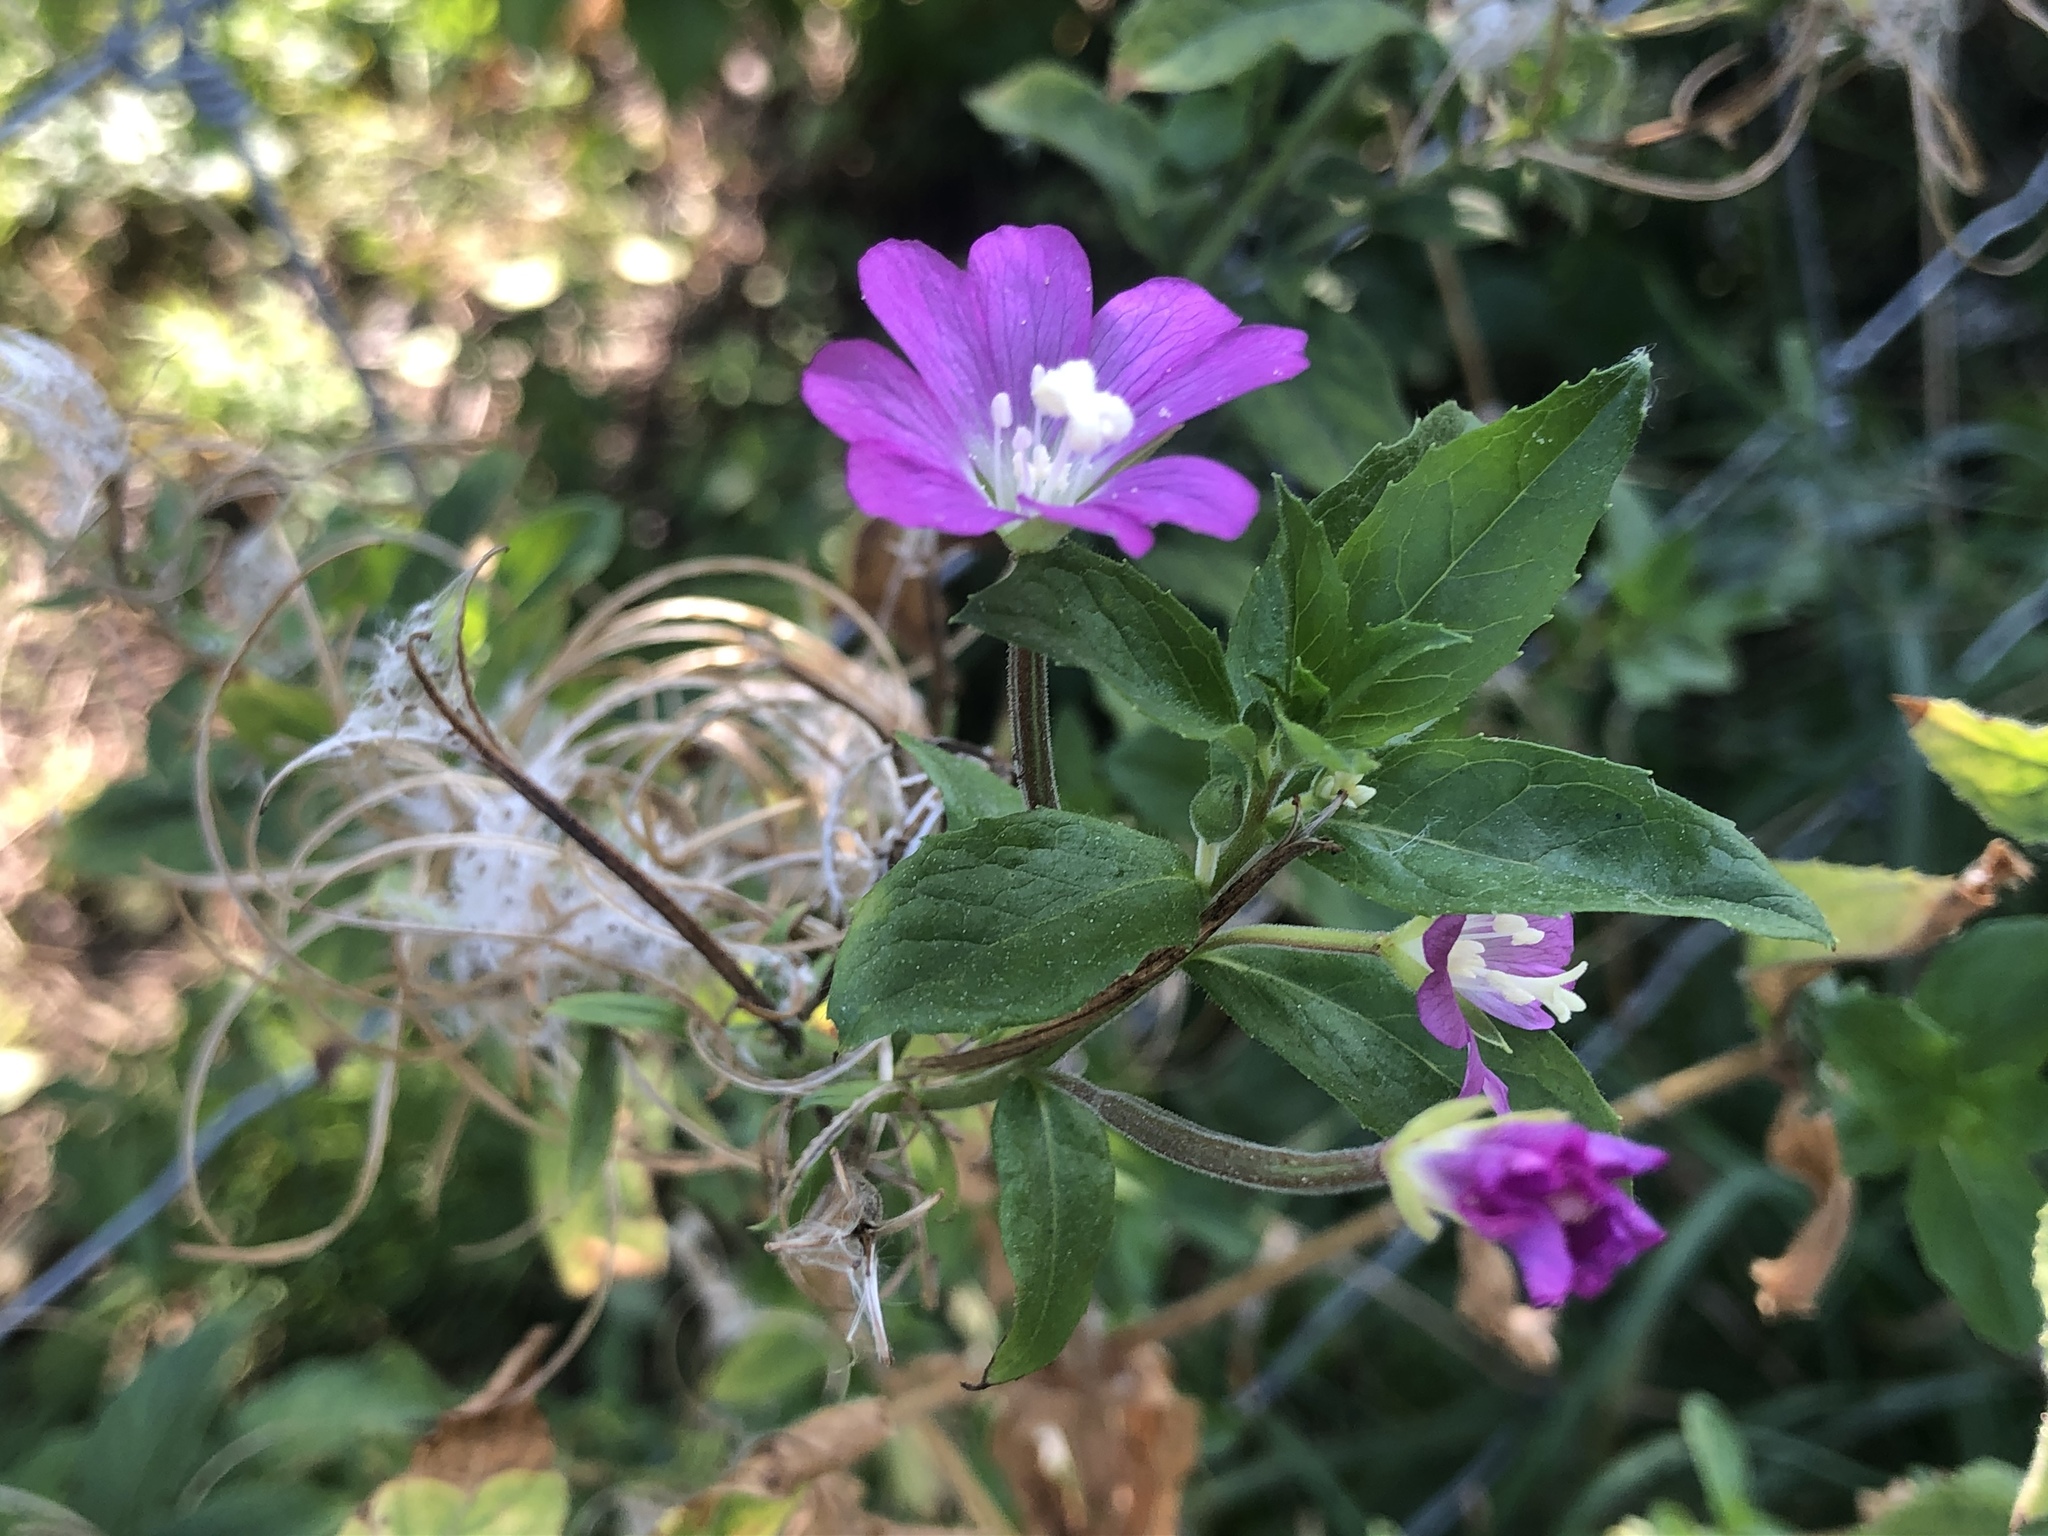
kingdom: Plantae
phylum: Tracheophyta
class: Magnoliopsida
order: Myrtales
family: Onagraceae
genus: Epilobium
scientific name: Epilobium hirsutum
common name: Great willowherb
